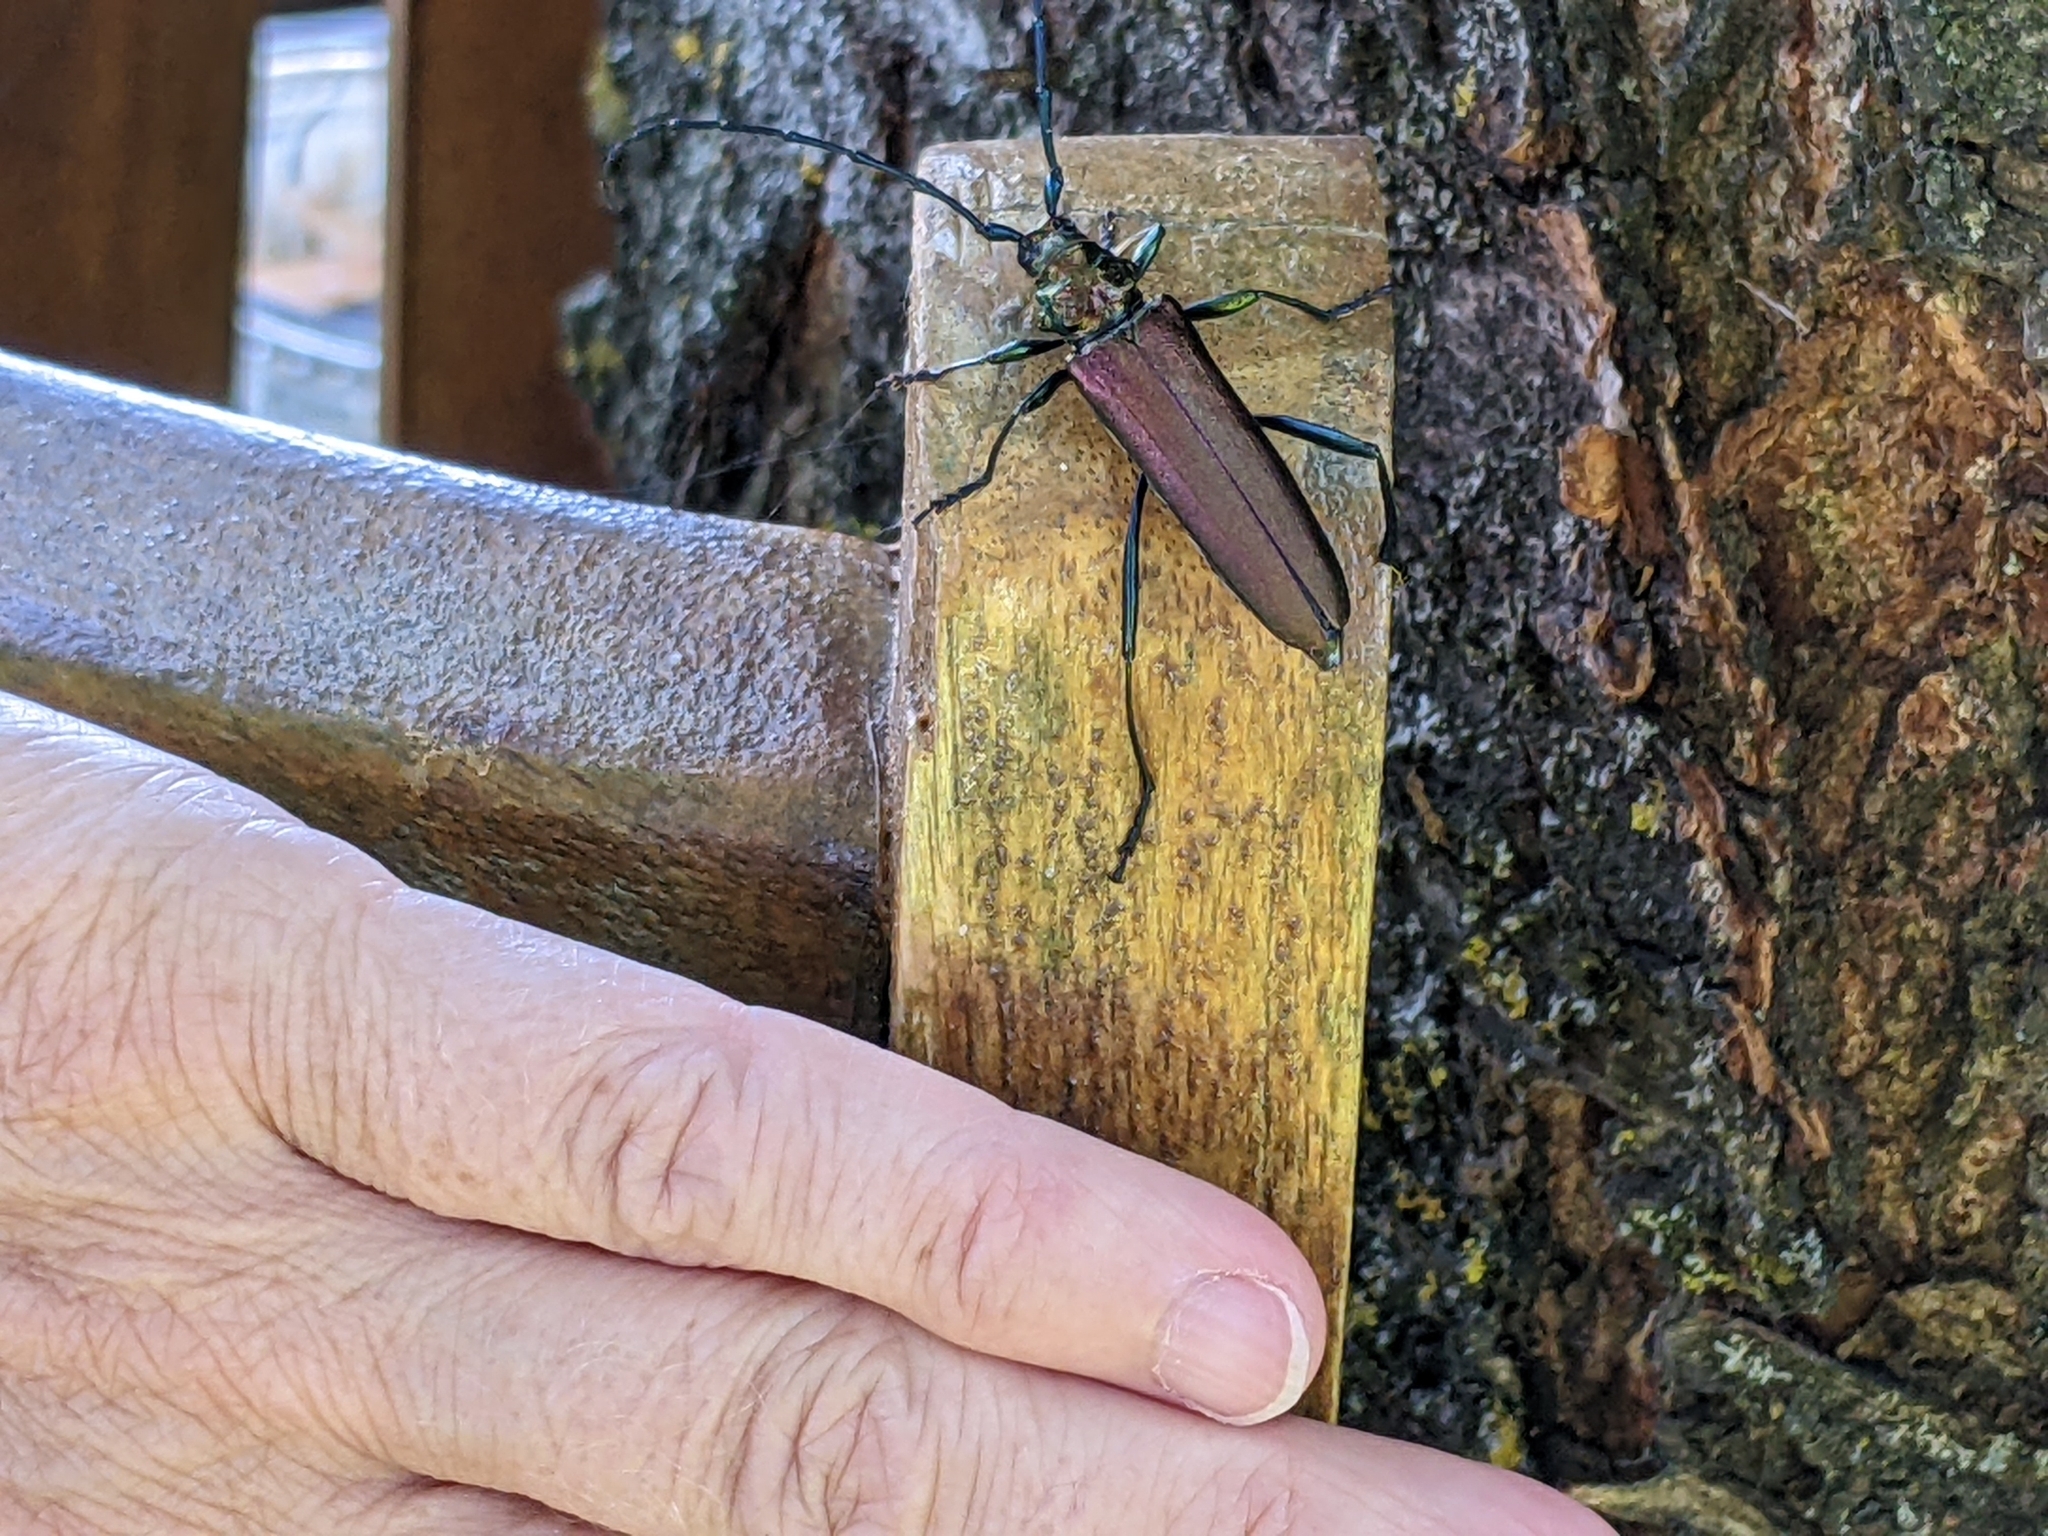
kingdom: Animalia
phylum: Arthropoda
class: Insecta
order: Coleoptera
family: Cerambycidae
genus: Aromia
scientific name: Aromia moschata
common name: Musk beetle
